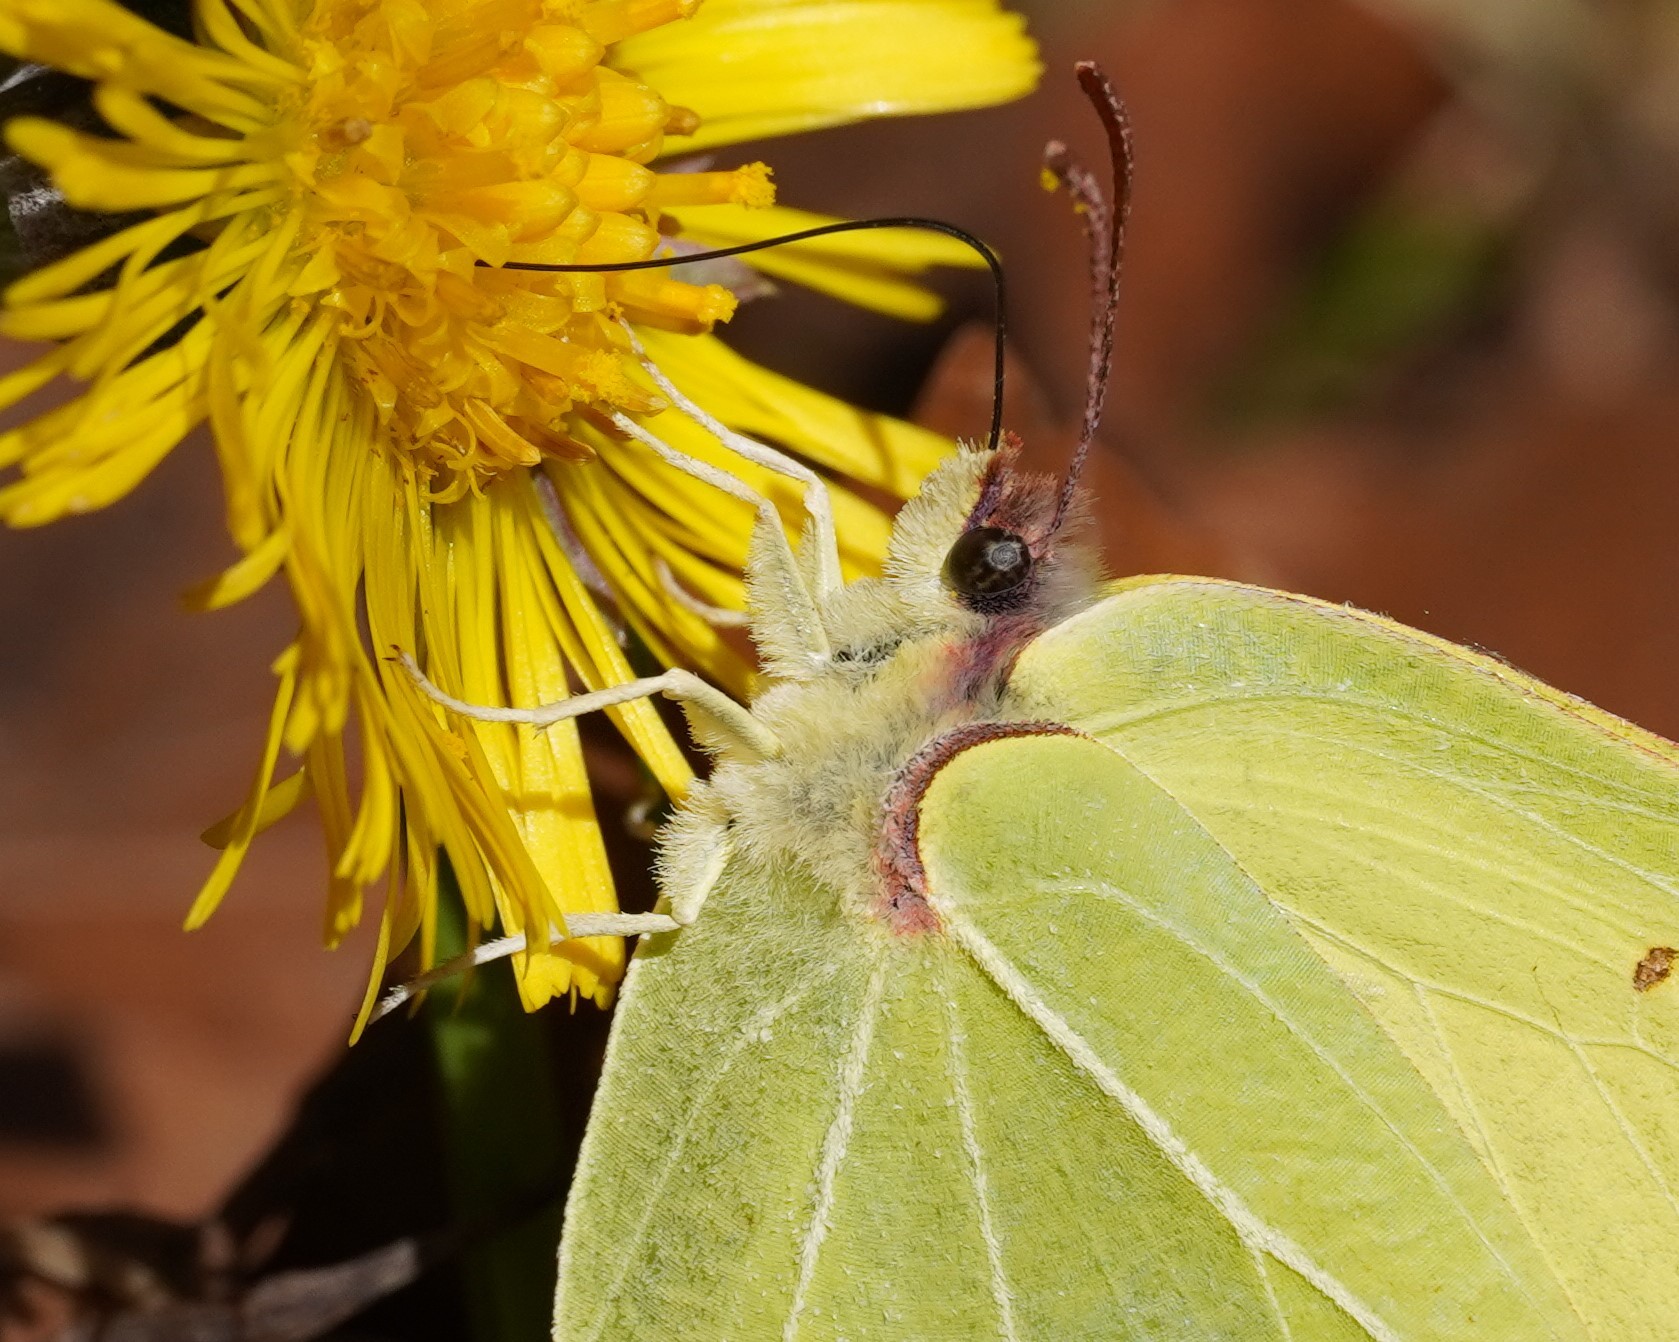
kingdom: Animalia
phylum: Arthropoda
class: Insecta
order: Lepidoptera
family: Pieridae
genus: Gonepteryx
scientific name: Gonepteryx rhamni
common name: Brimstone
